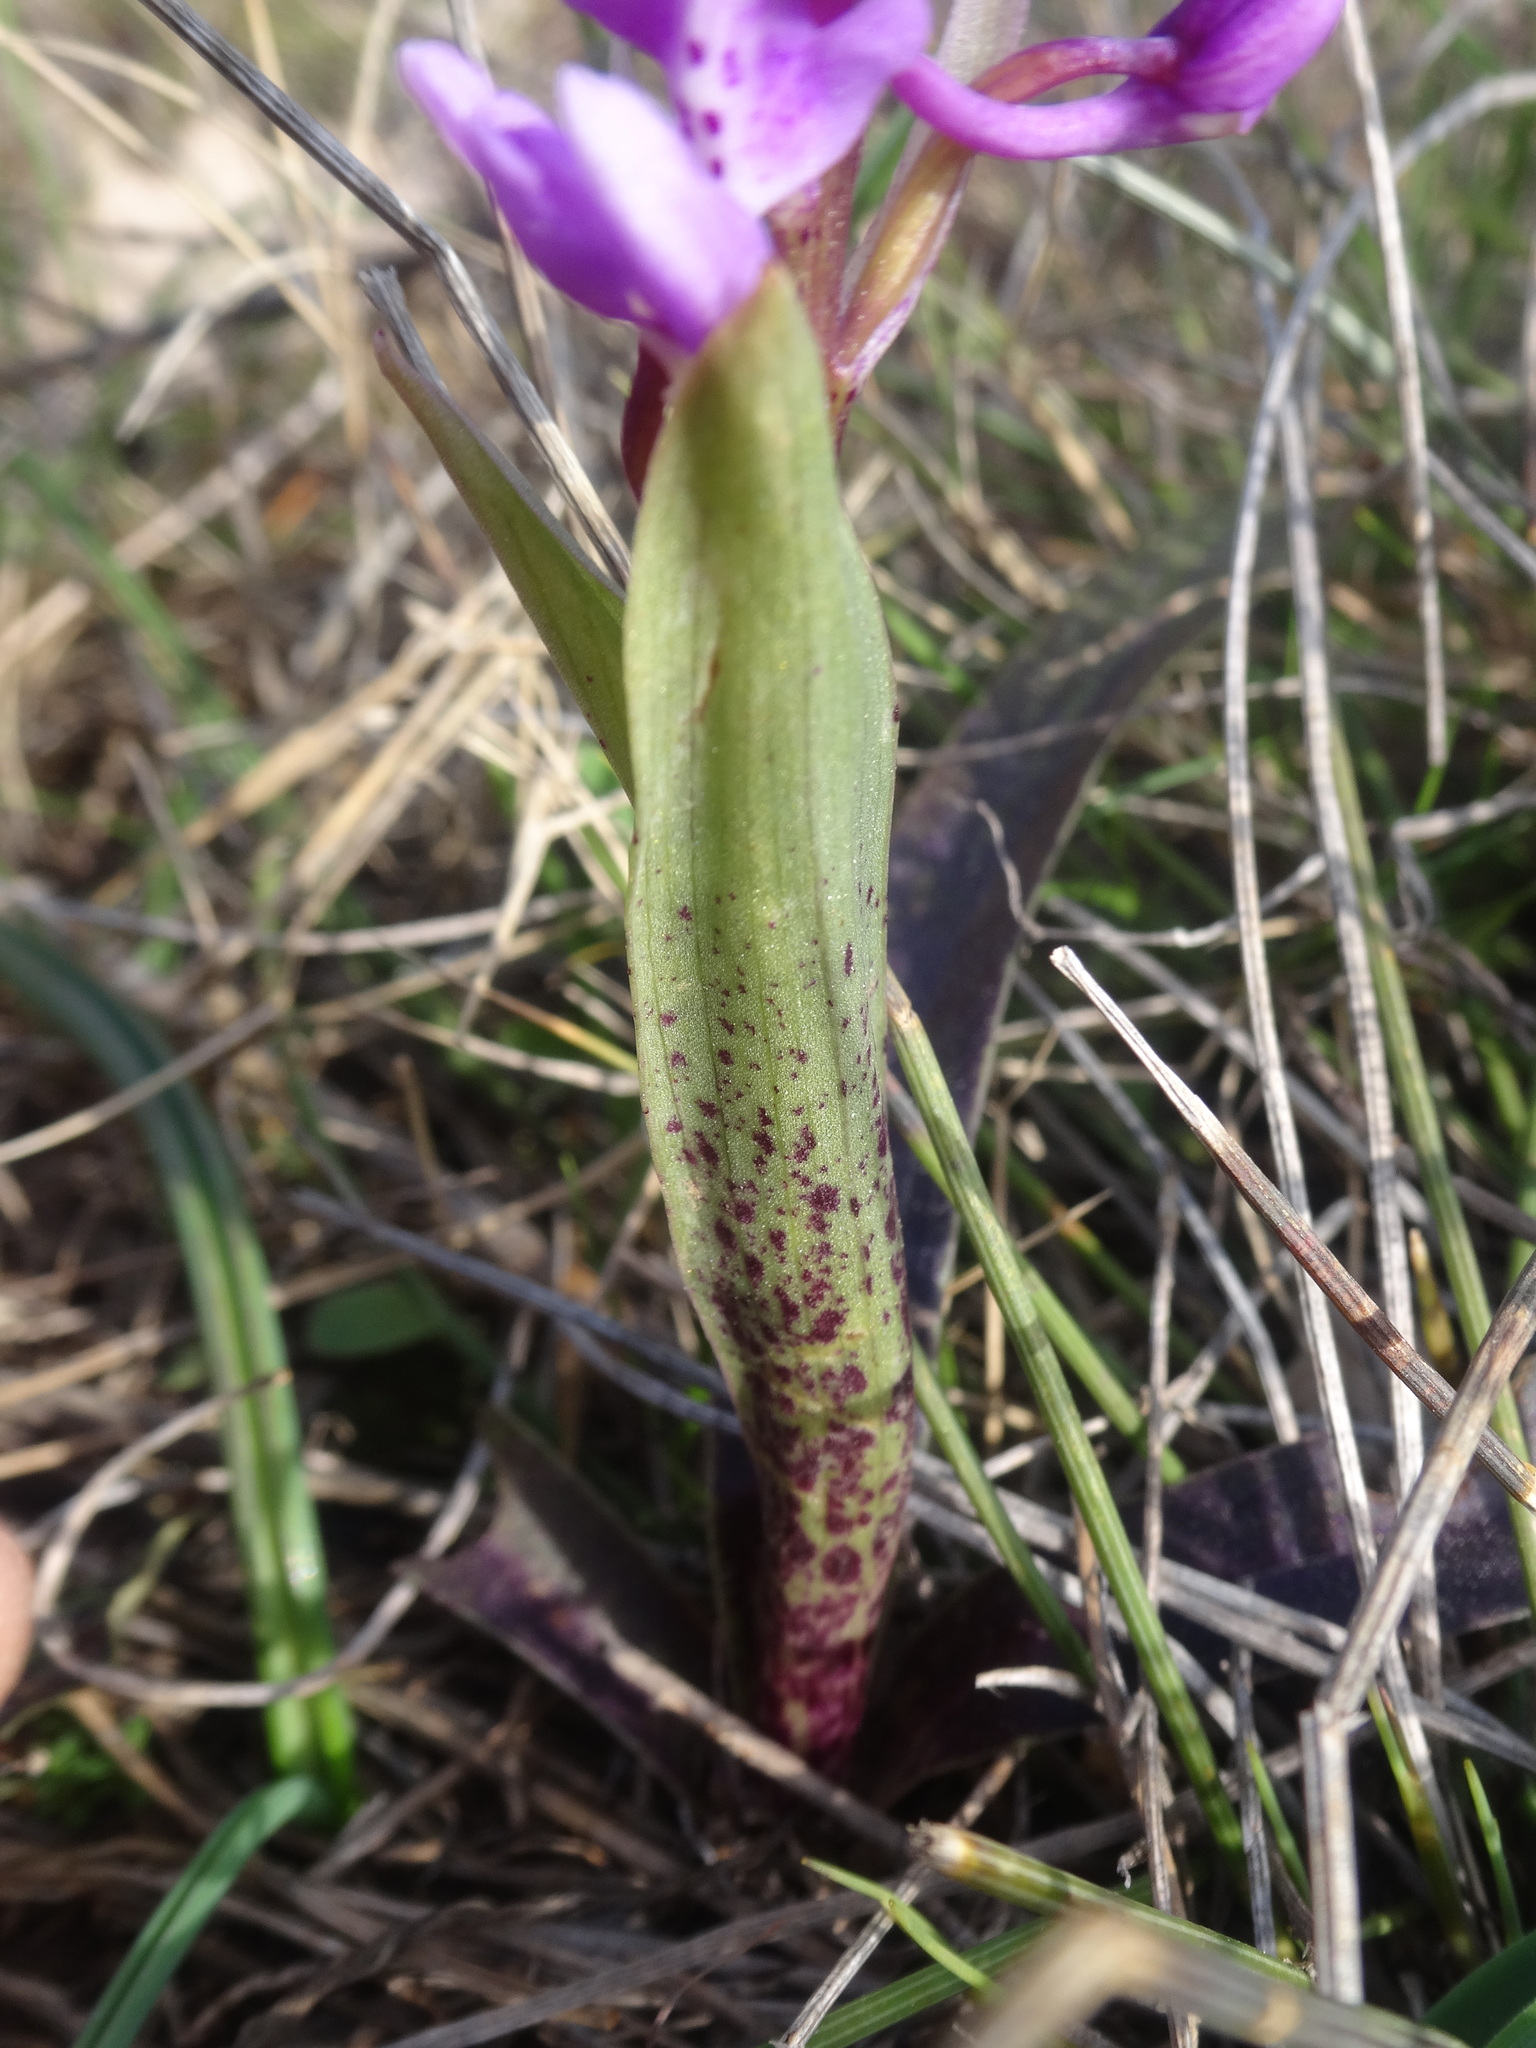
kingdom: Plantae
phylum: Tracheophyta
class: Liliopsida
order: Asparagales
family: Orchidaceae
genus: Orchis
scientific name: Orchis olbiensis
